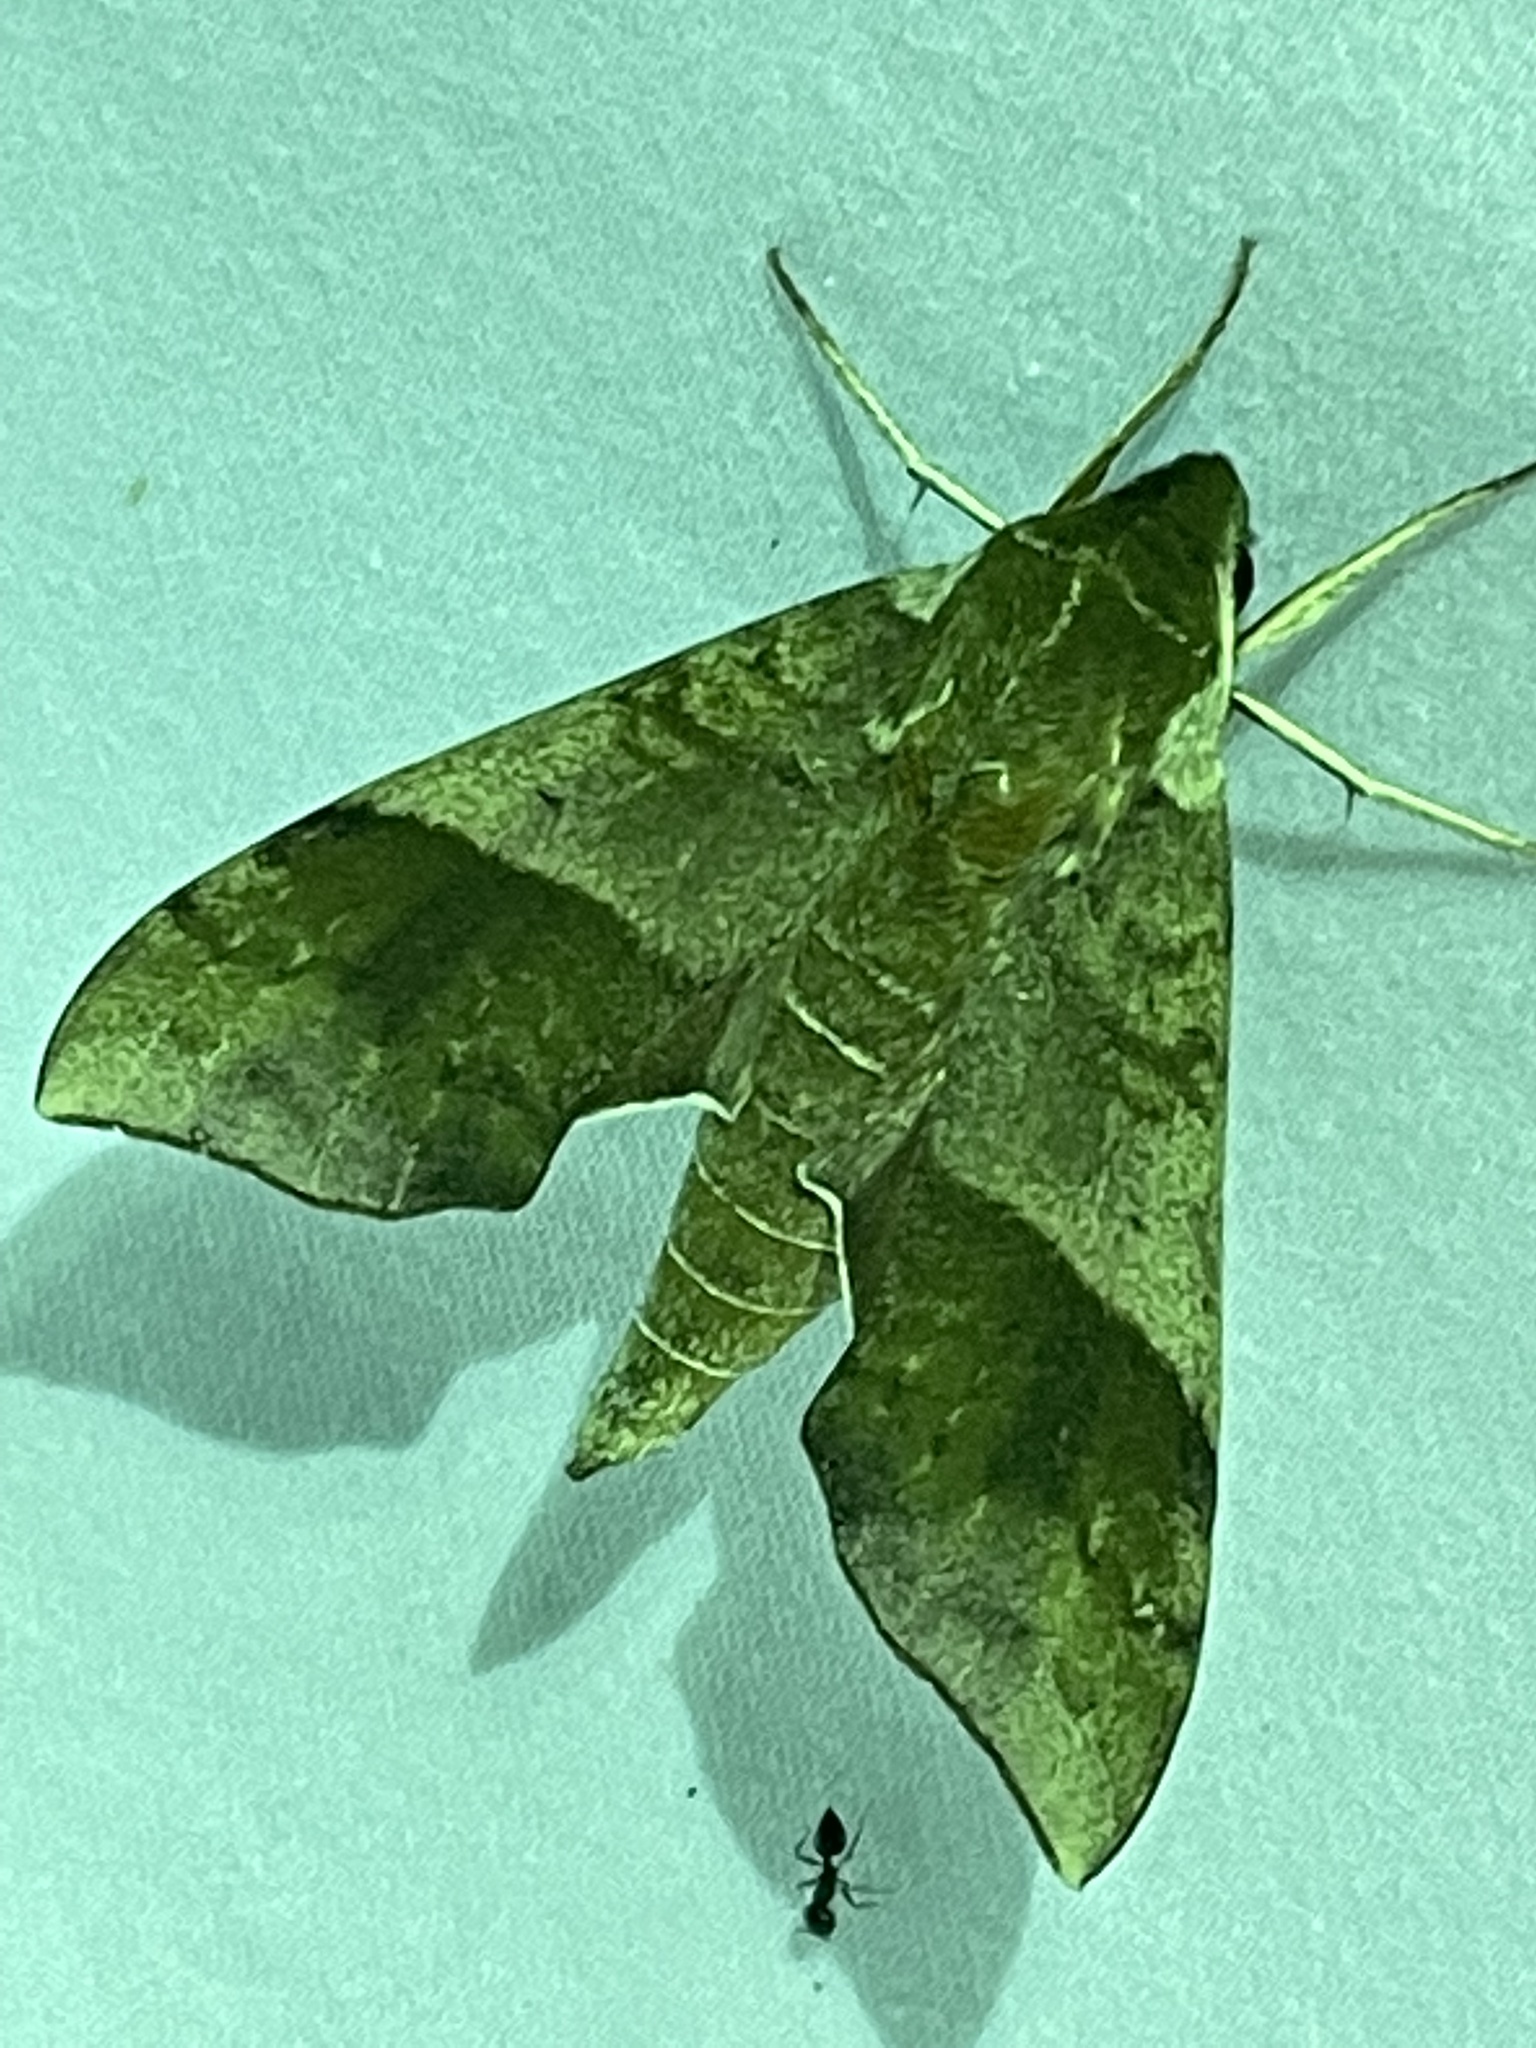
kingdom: Animalia
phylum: Arthropoda
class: Insecta
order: Lepidoptera
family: Sphingidae
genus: Darapsa
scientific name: Darapsa choerilus
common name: Azalea sphinx
